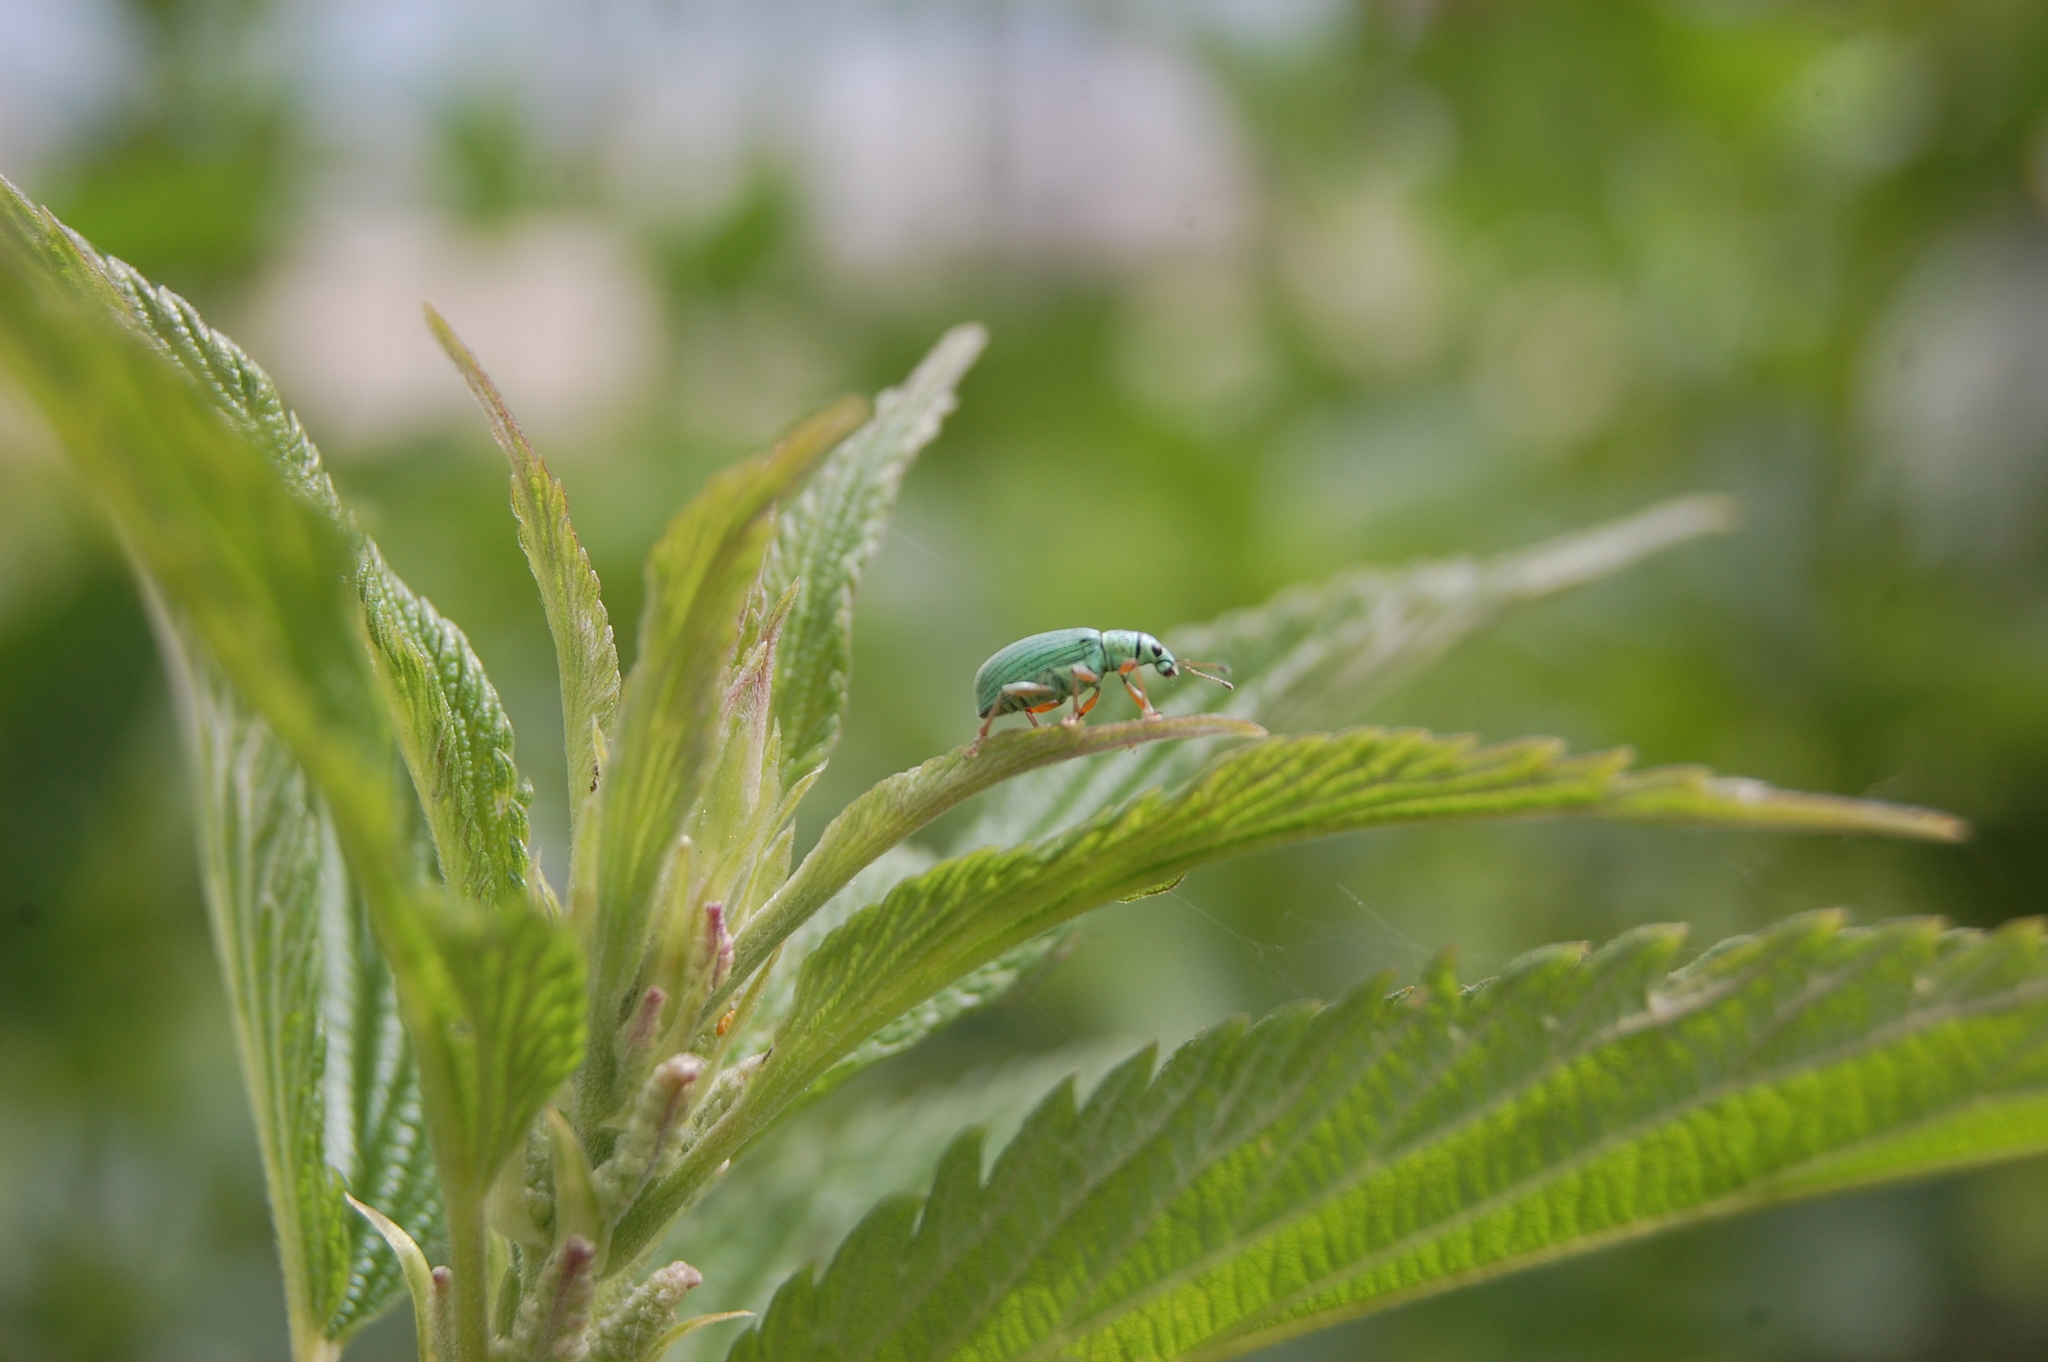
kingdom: Animalia
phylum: Arthropoda
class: Insecta
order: Coleoptera
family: Curculionidae
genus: Polydrusus
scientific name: Polydrusus formosus
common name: Weevil
